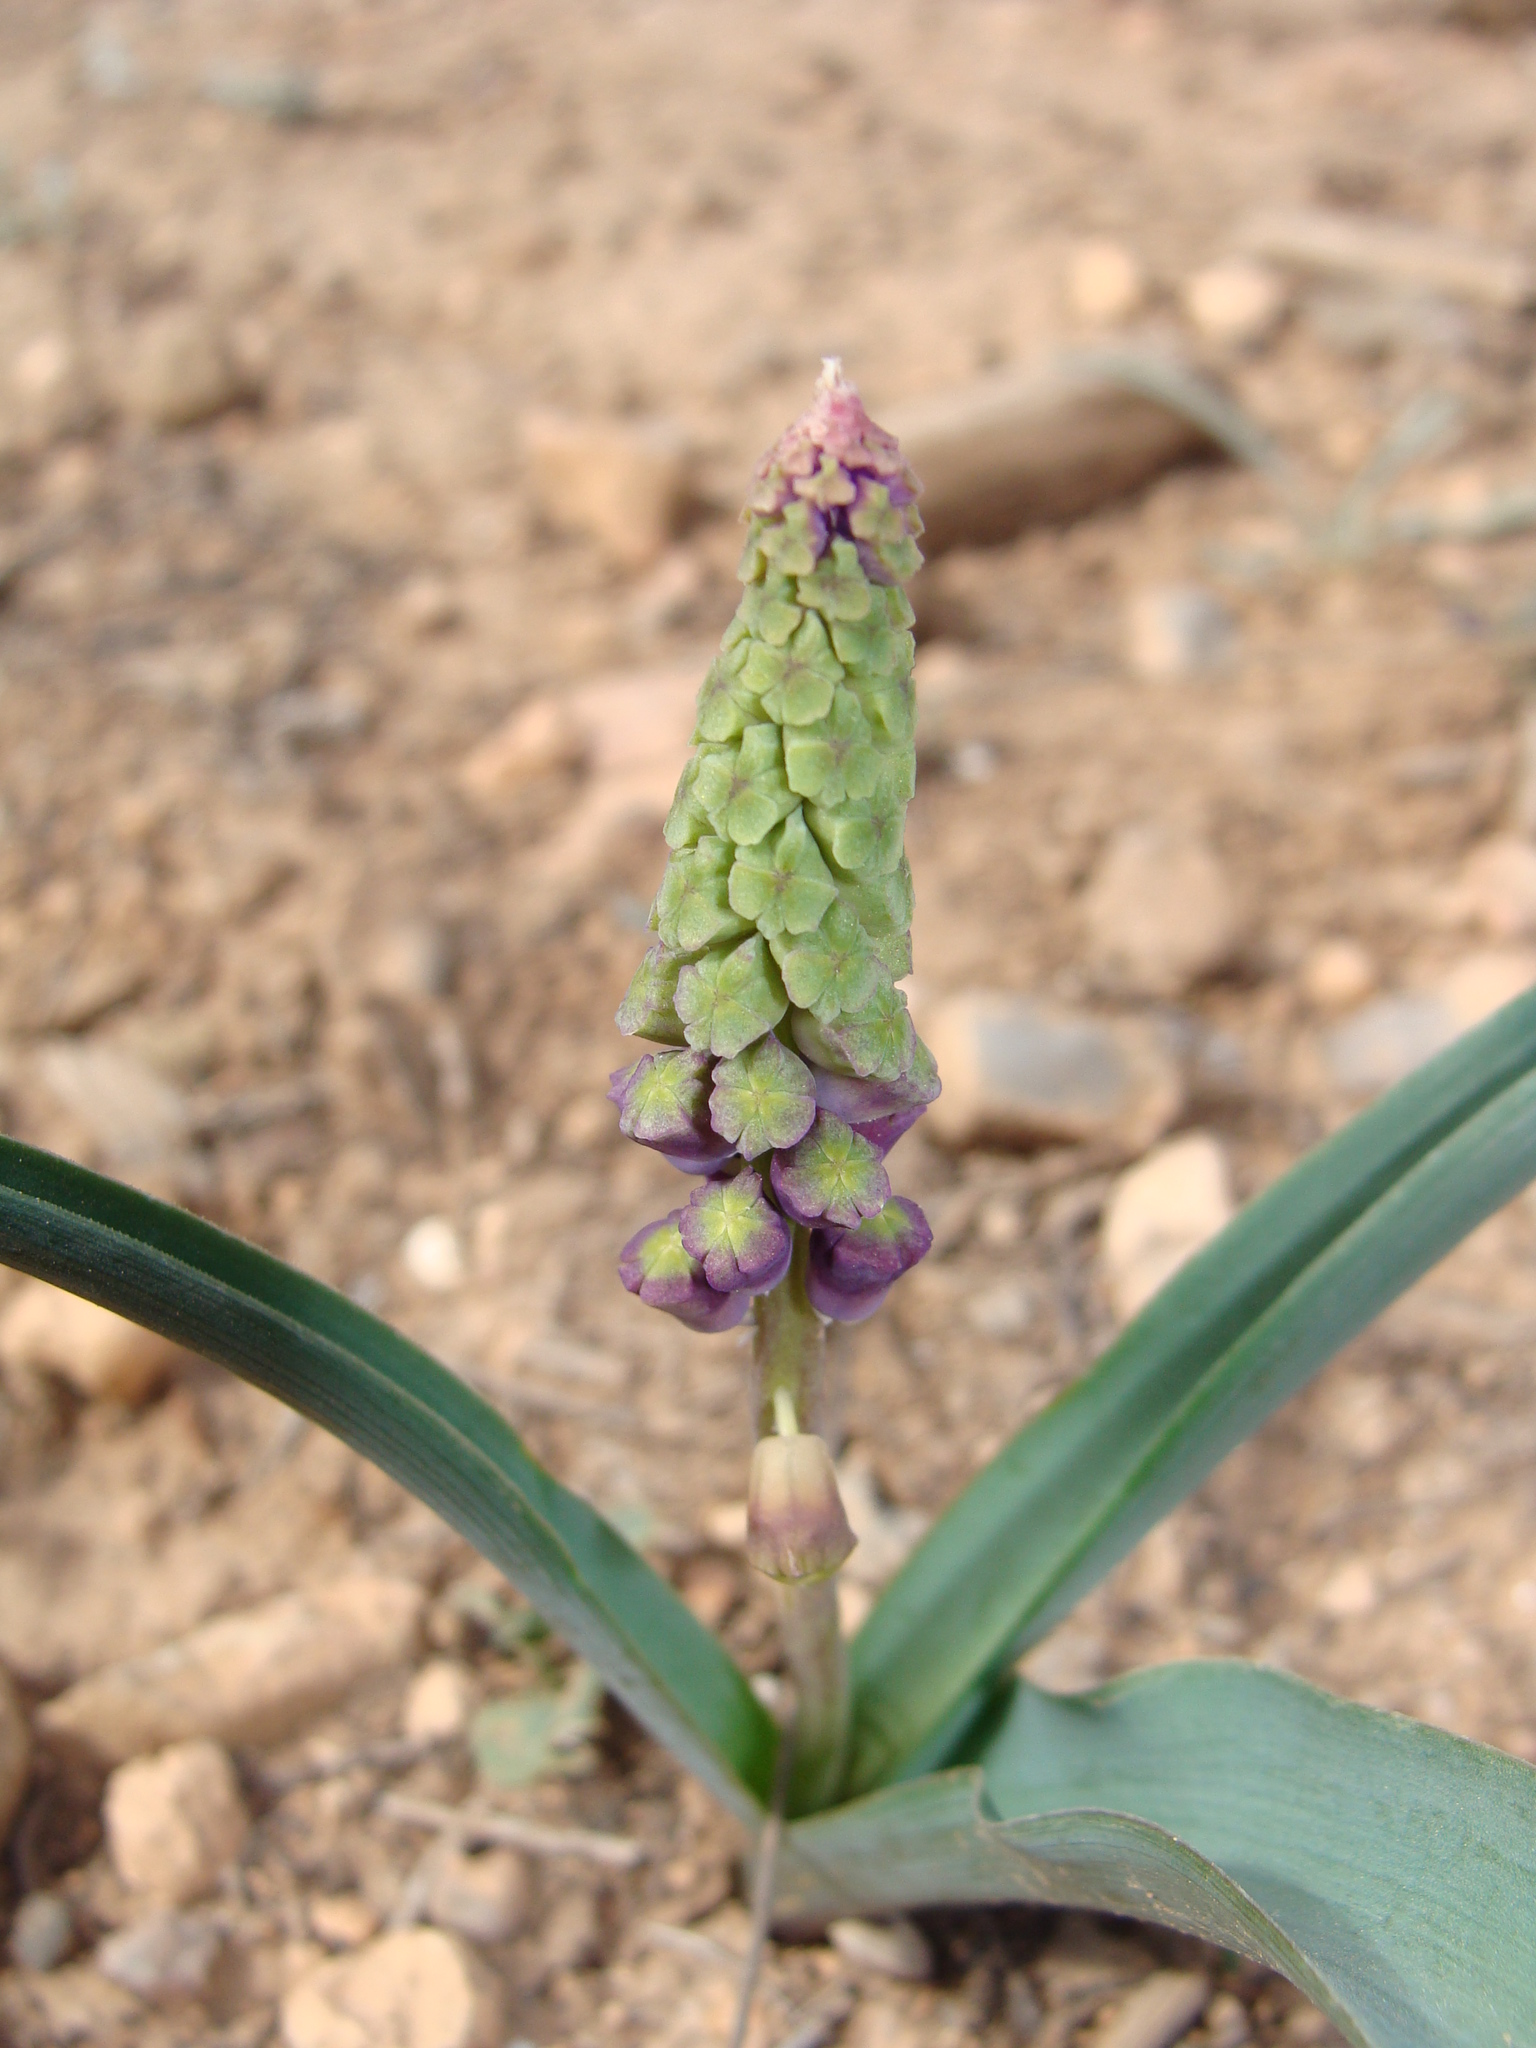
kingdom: Plantae
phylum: Tracheophyta
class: Liliopsida
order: Asparagales
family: Asparagaceae
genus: Muscari
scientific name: Muscari comosum
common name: Tassel hyacinth
